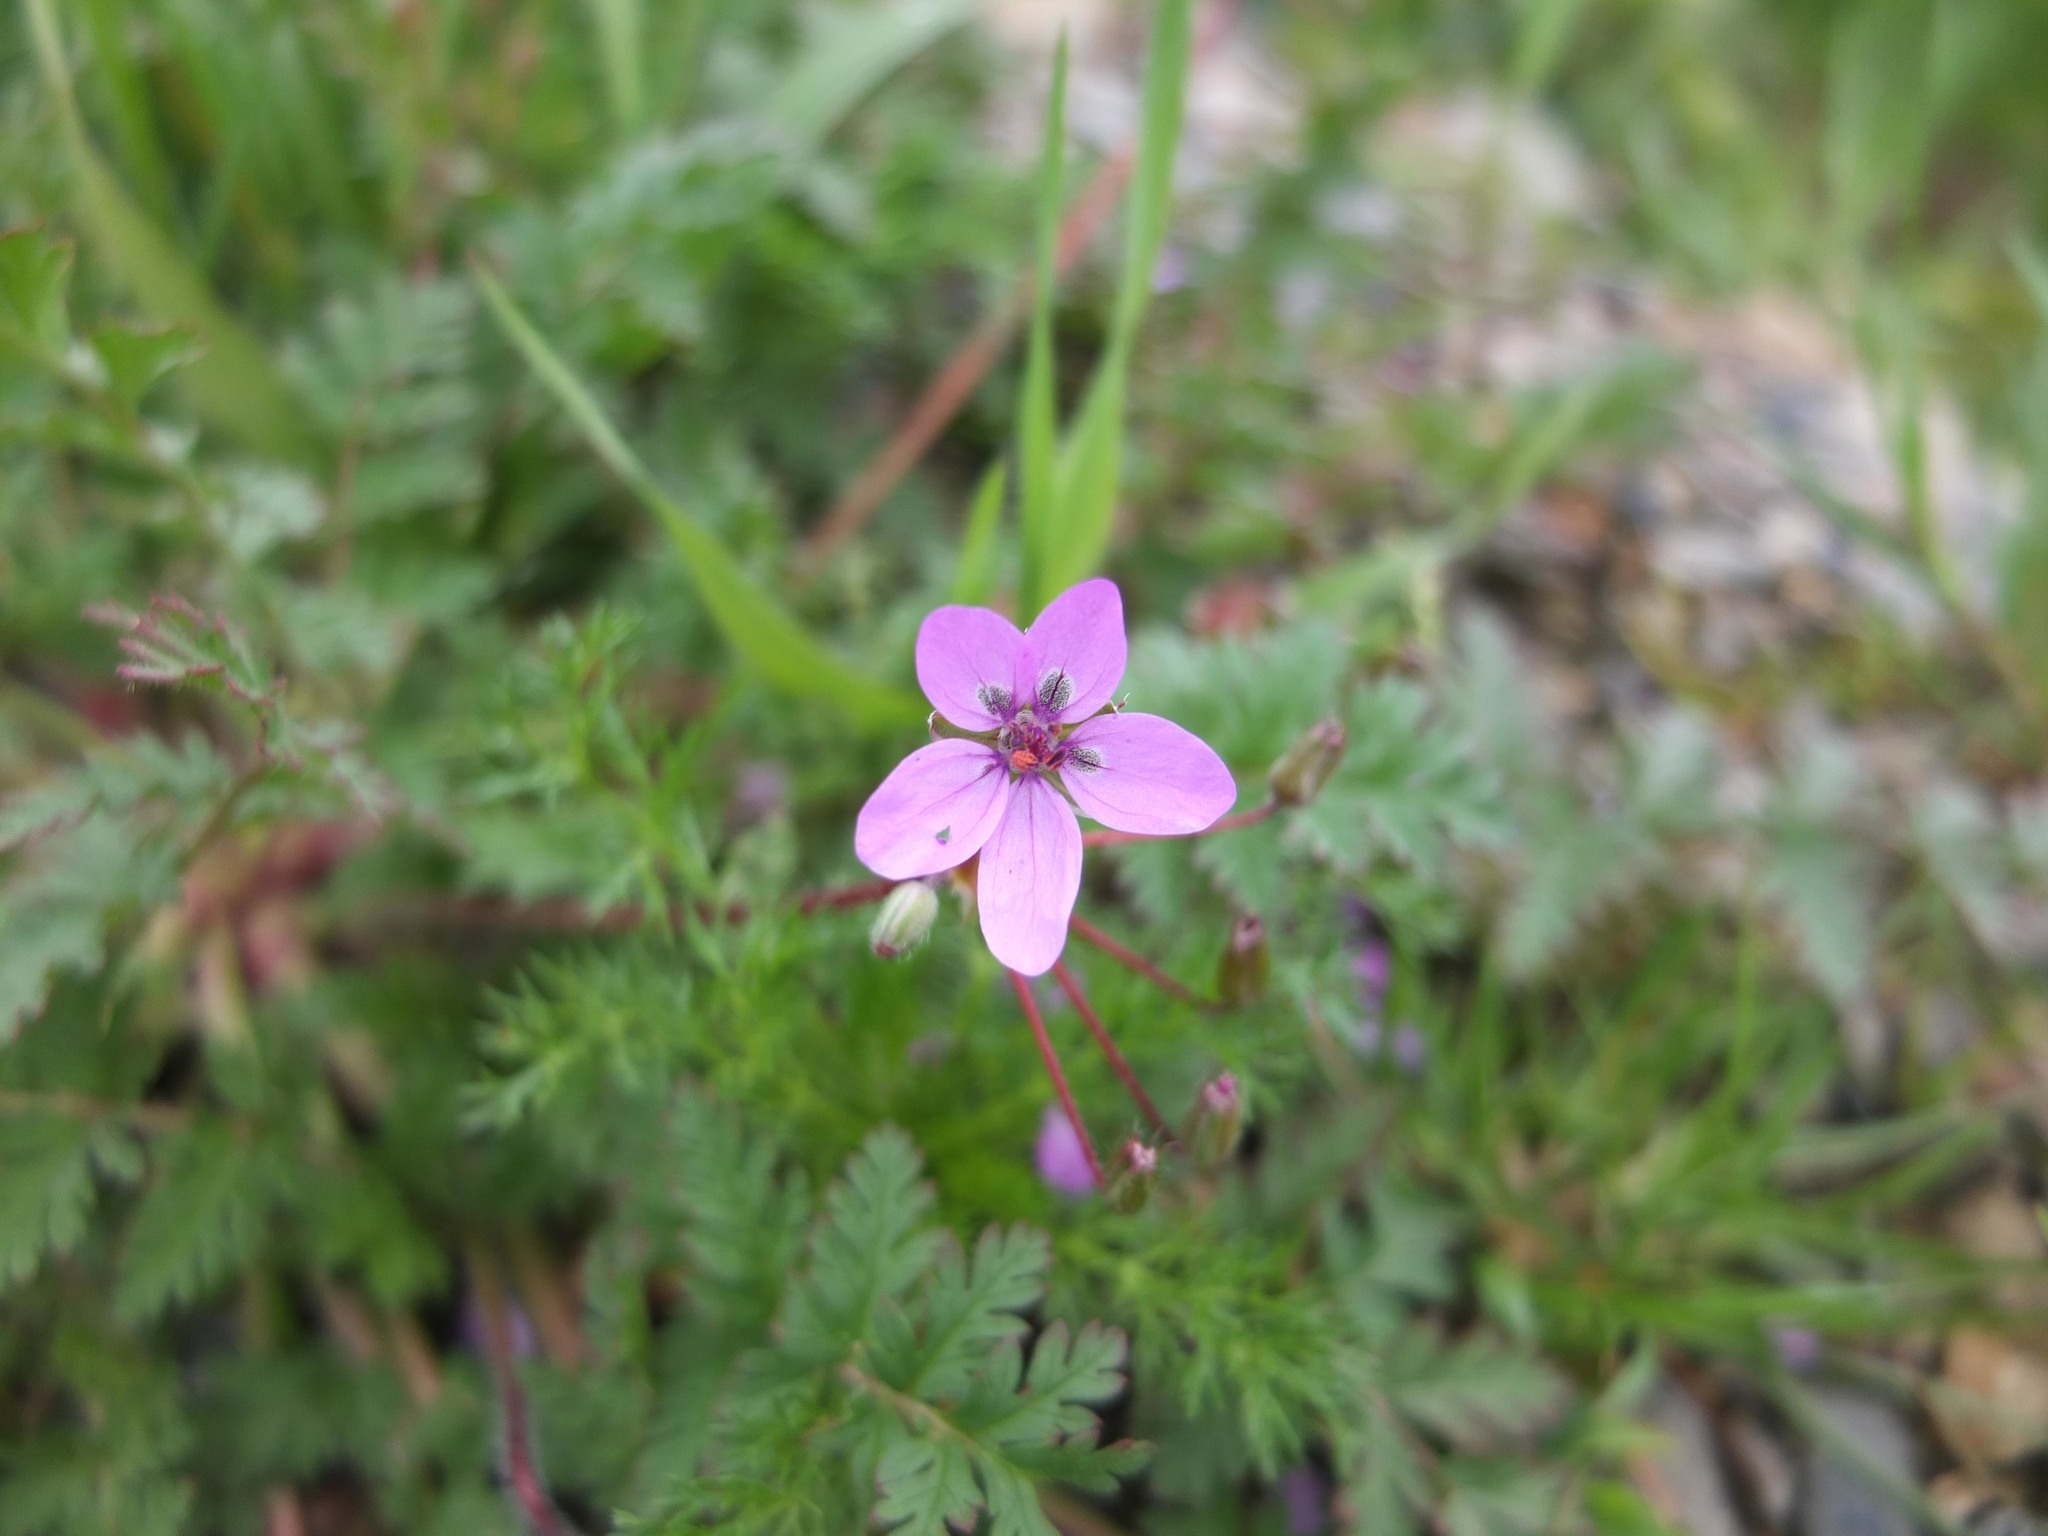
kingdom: Plantae
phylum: Tracheophyta
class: Magnoliopsida
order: Geraniales
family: Geraniaceae
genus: Erodium
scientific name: Erodium cicutarium
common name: Common stork's-bill
